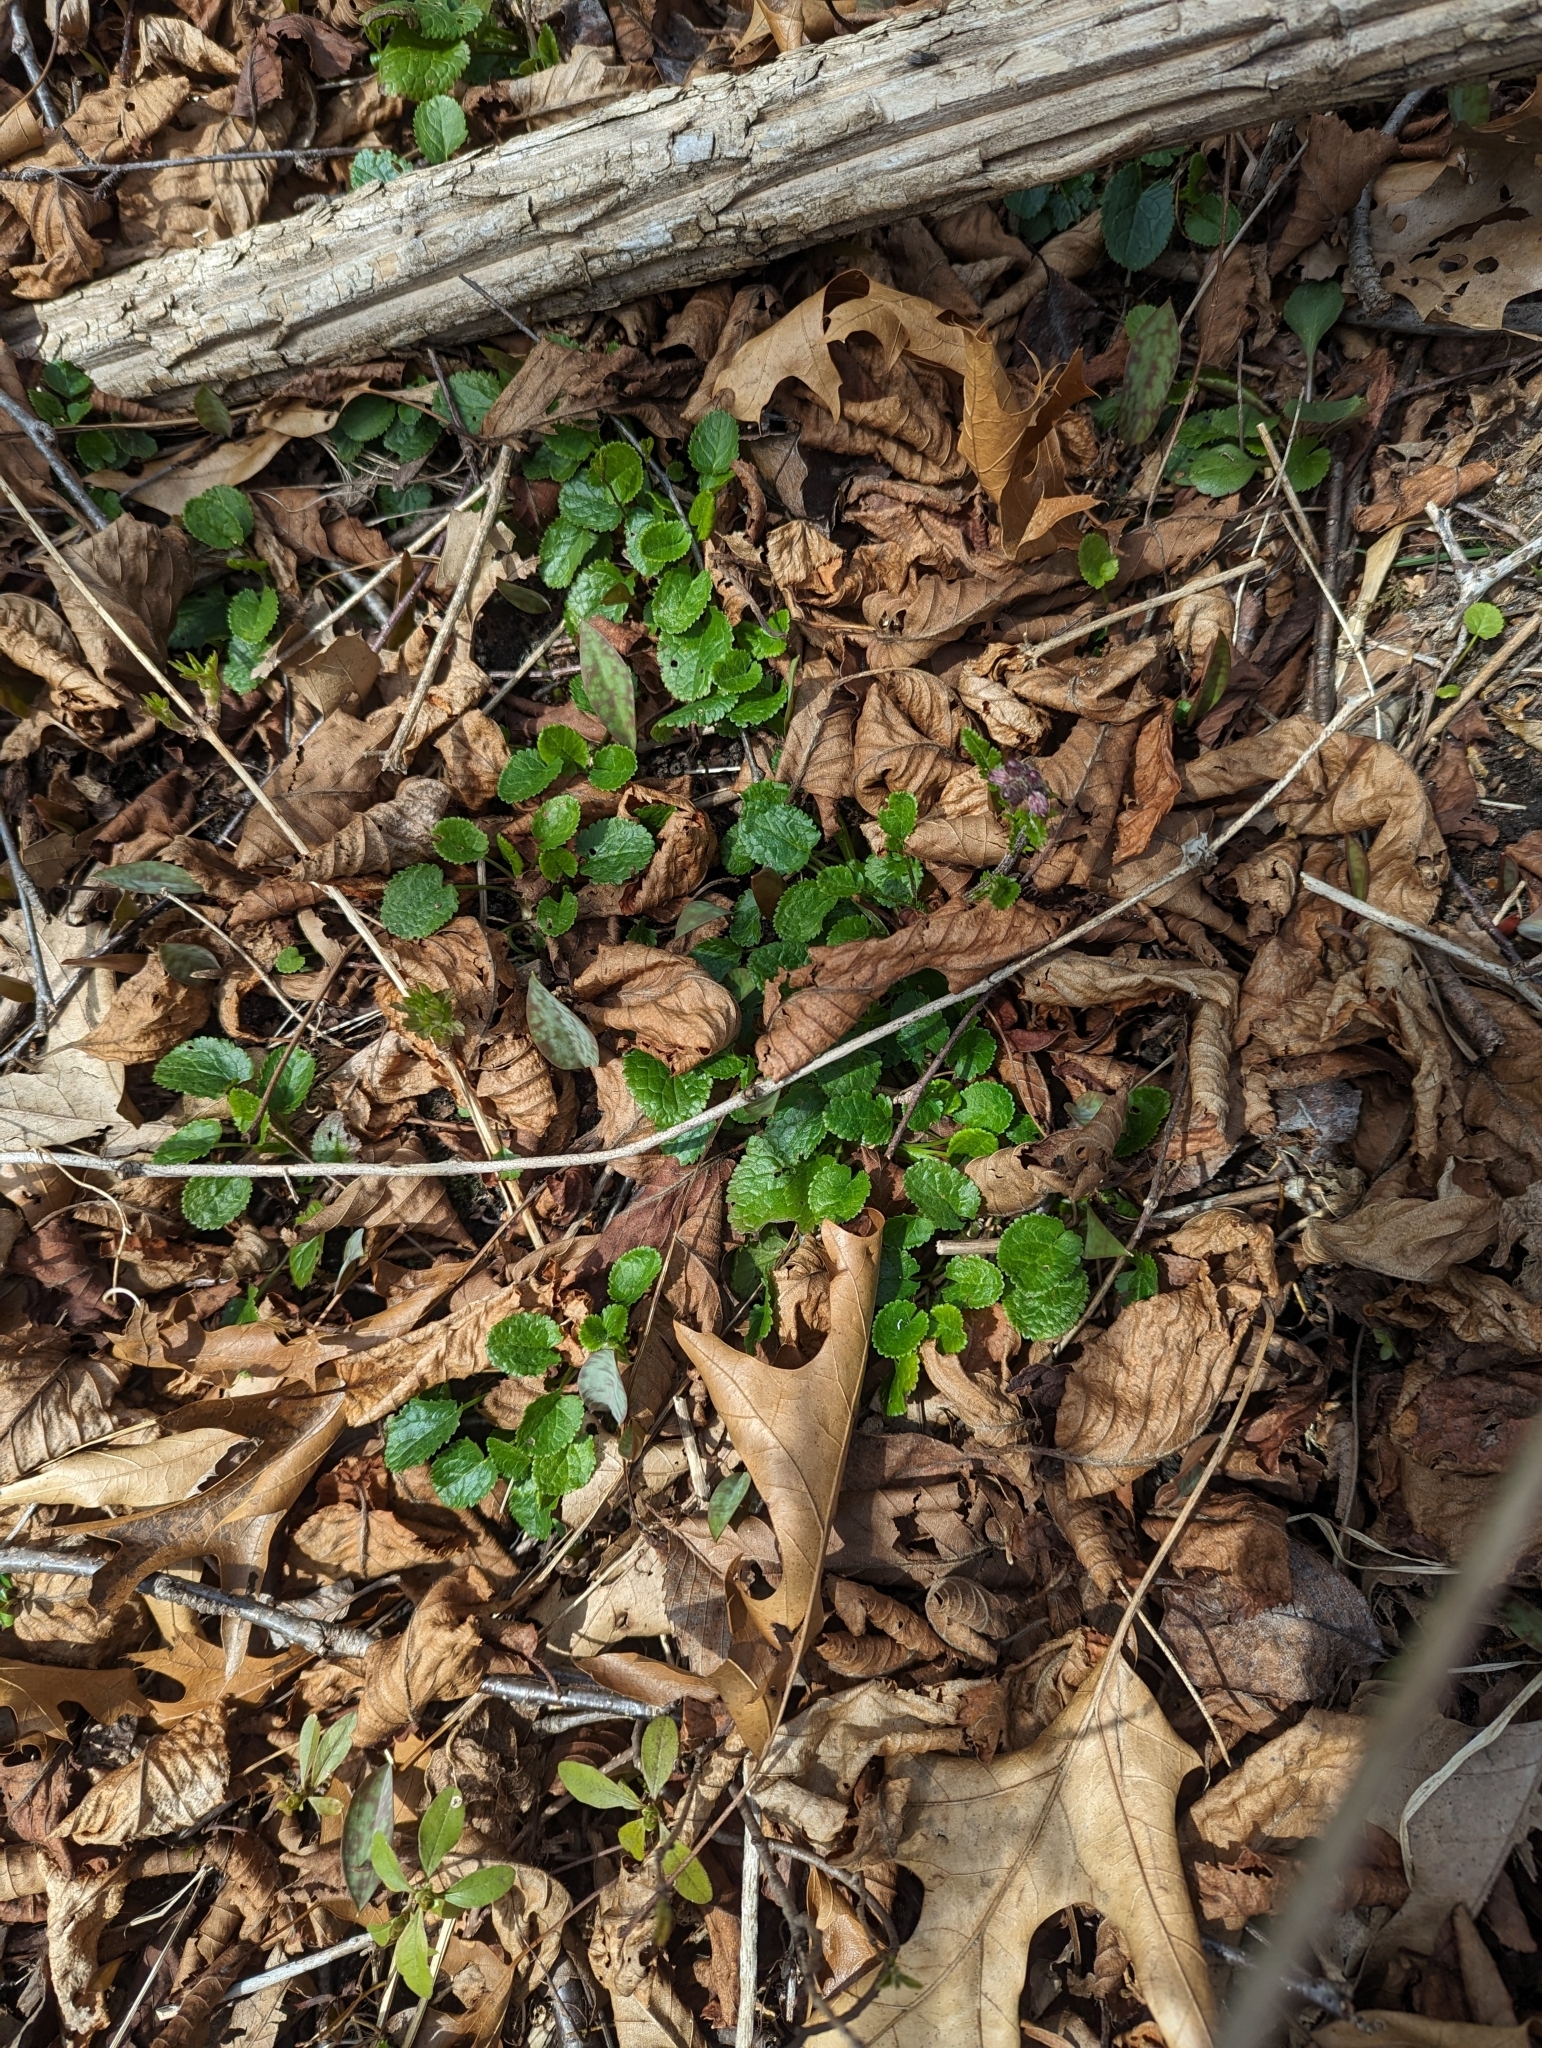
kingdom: Plantae
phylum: Tracheophyta
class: Magnoliopsida
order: Asterales
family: Asteraceae
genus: Packera
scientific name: Packera aurea
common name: Golden groundsel
